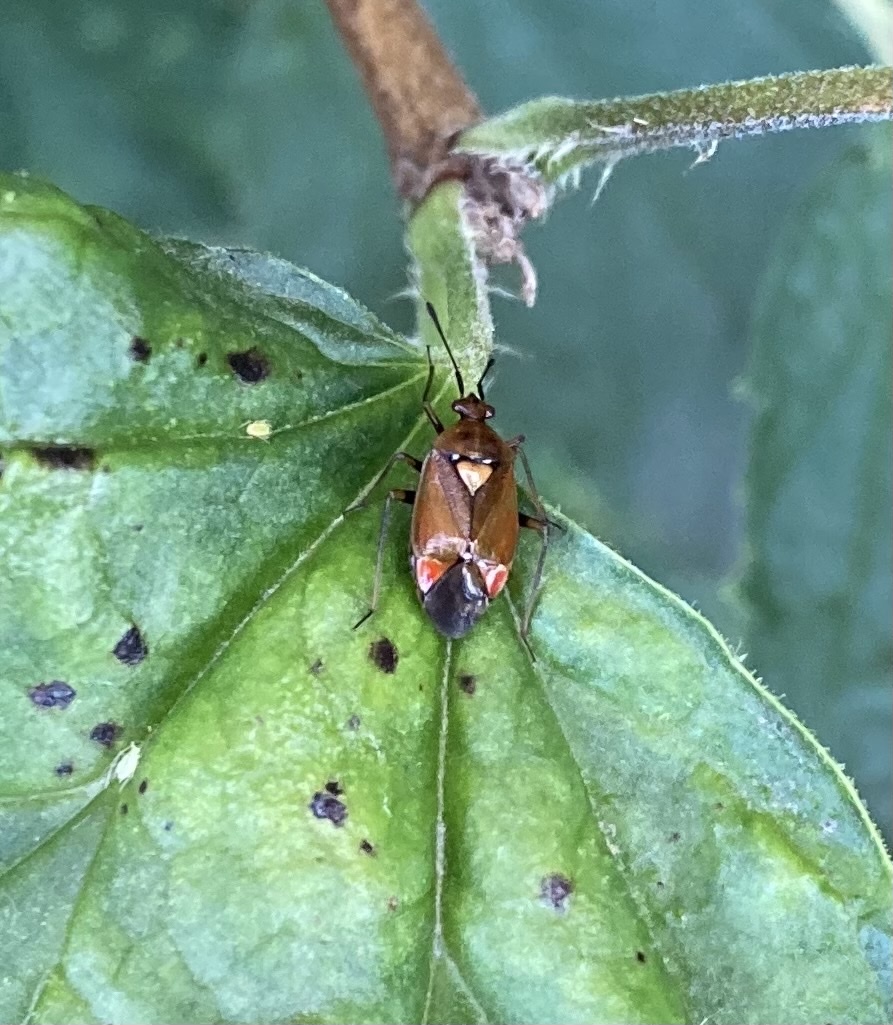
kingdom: Animalia
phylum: Arthropoda
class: Insecta
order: Hemiptera
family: Miridae
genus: Deraeocoris
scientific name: Deraeocoris ruber
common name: Plant bug
